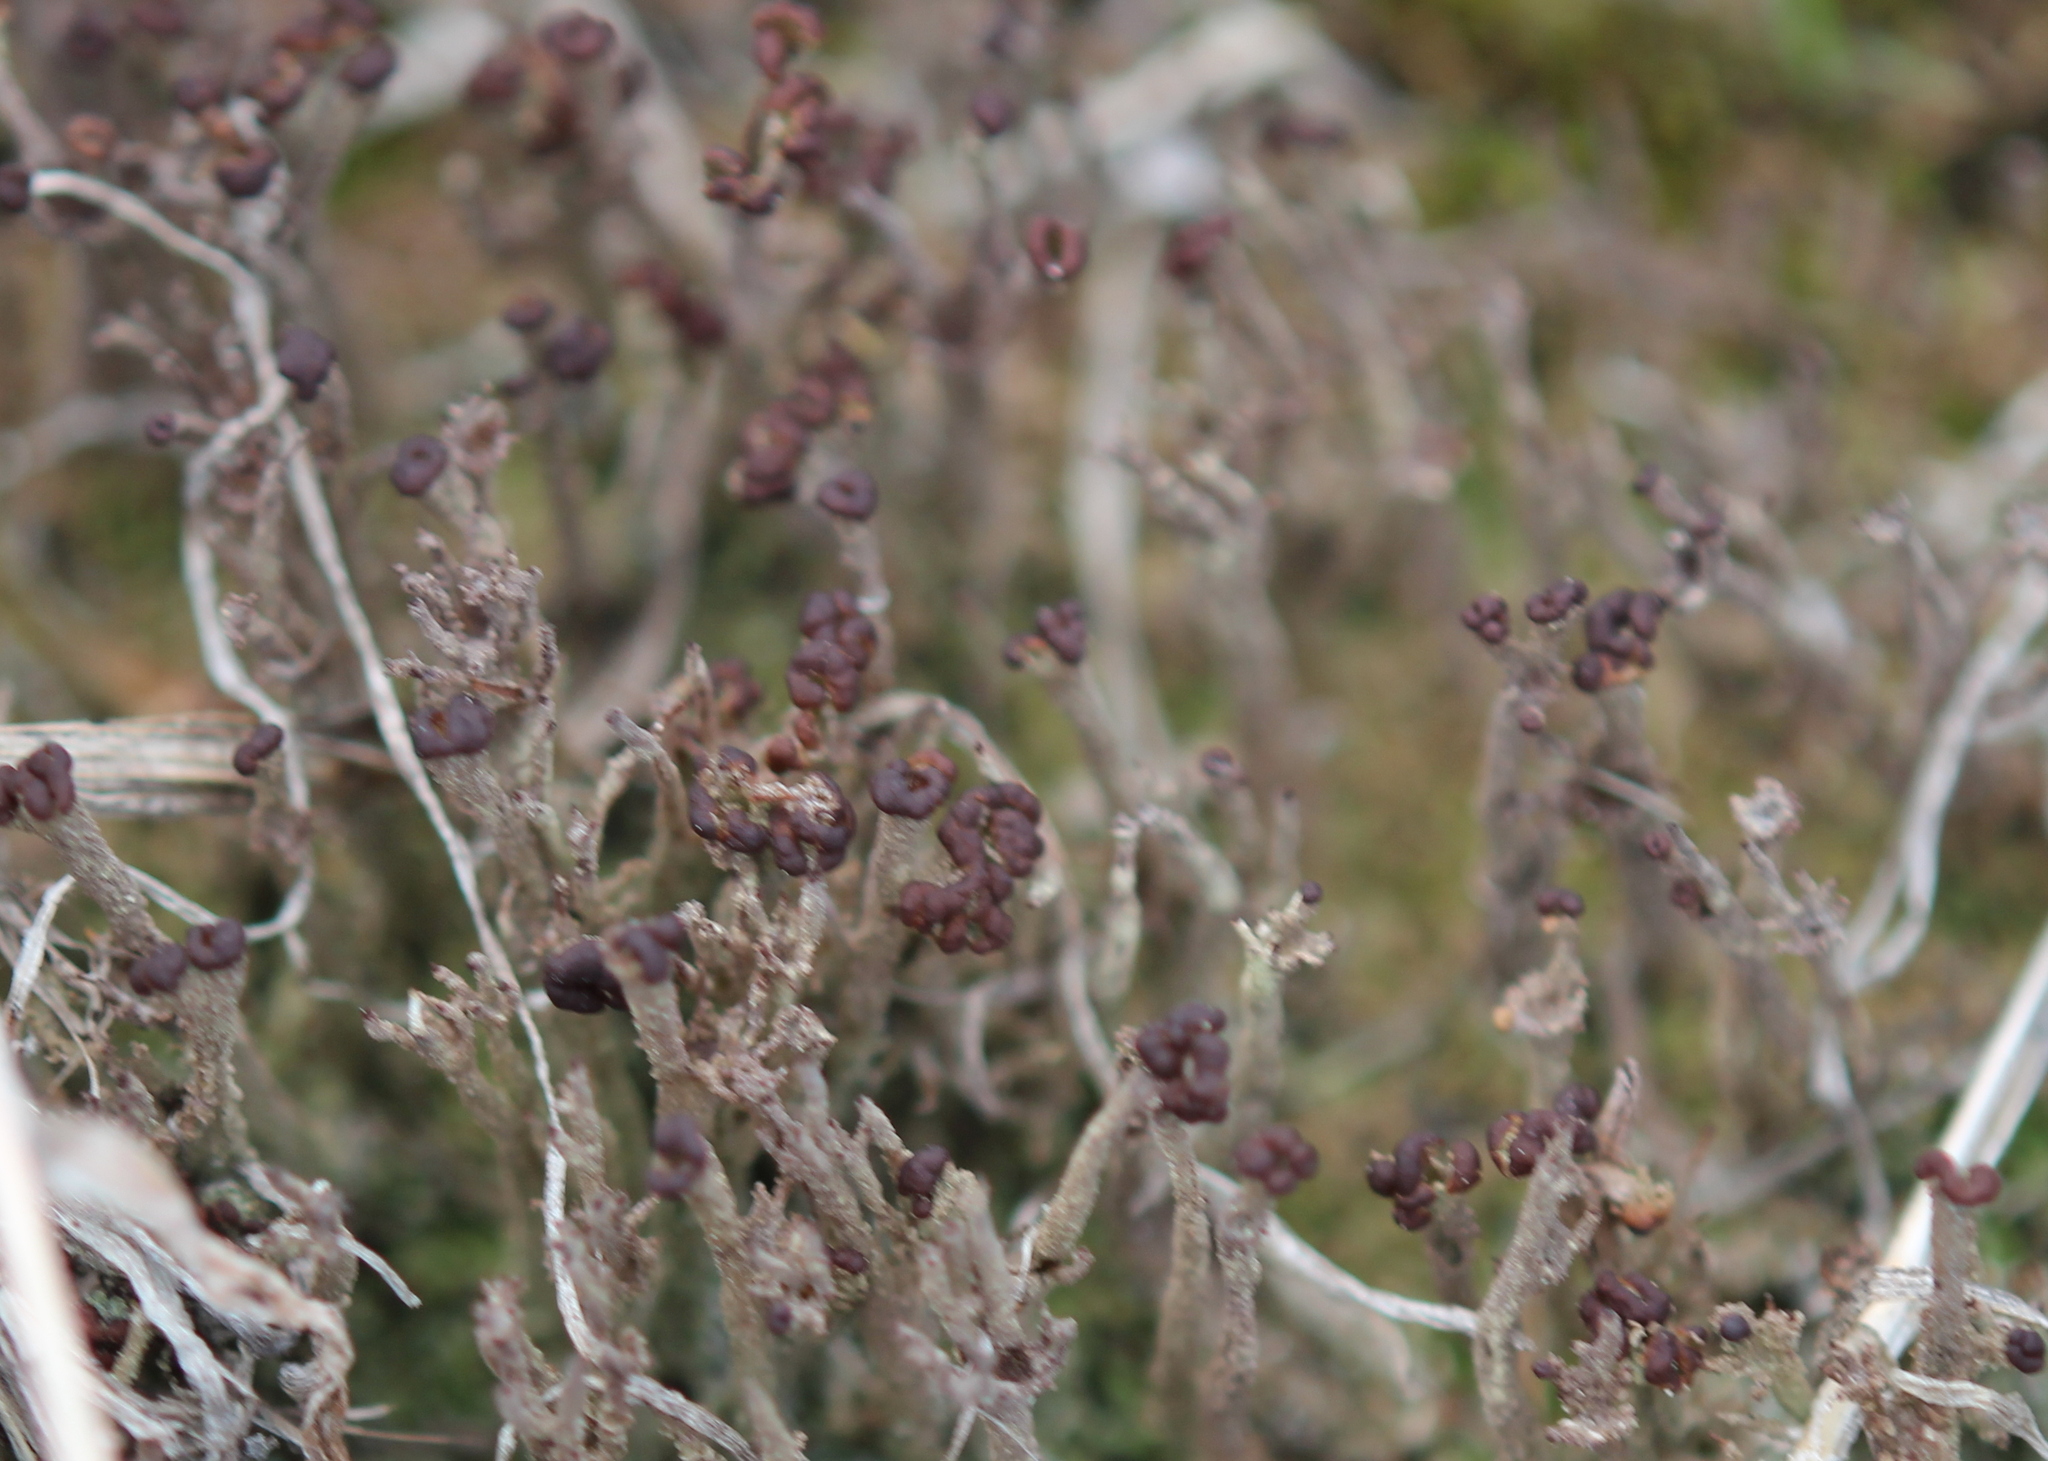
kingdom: Fungi
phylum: Ascomycota
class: Lecanoromycetes
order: Lecanorales
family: Cladoniaceae
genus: Cladonia
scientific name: Cladonia rei
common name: Wand lichen
